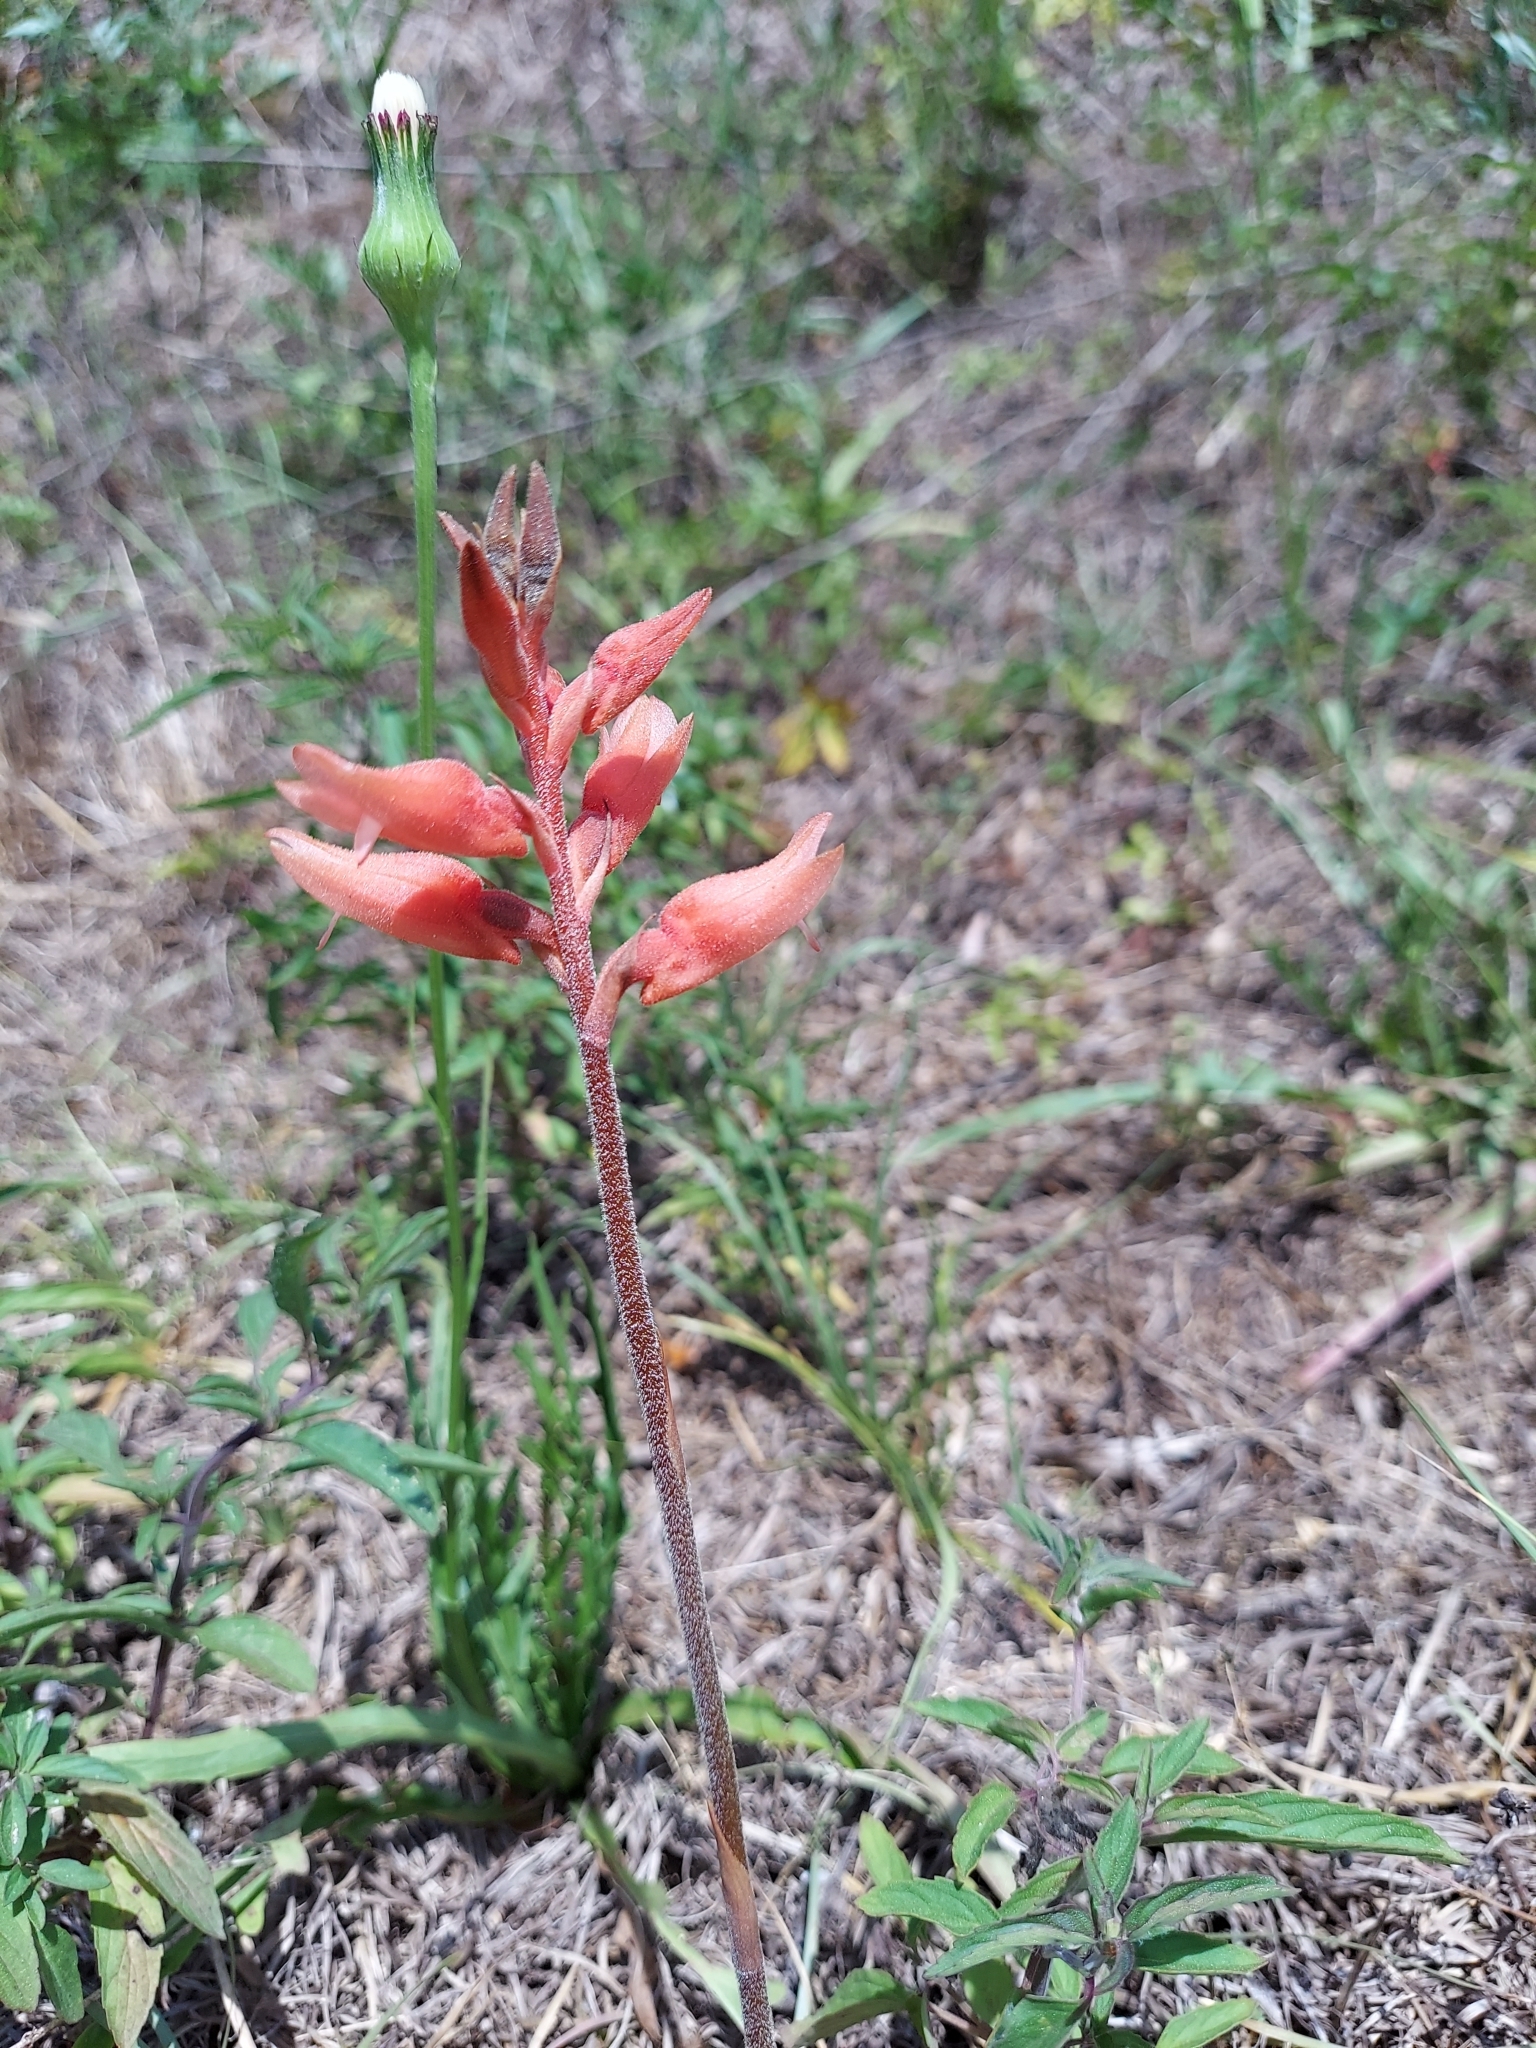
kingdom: Plantae
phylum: Tracheophyta
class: Liliopsida
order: Asparagales
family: Orchidaceae
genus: Sacoila
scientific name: Sacoila lanceolata
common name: Leafless beaked ladiestresses
